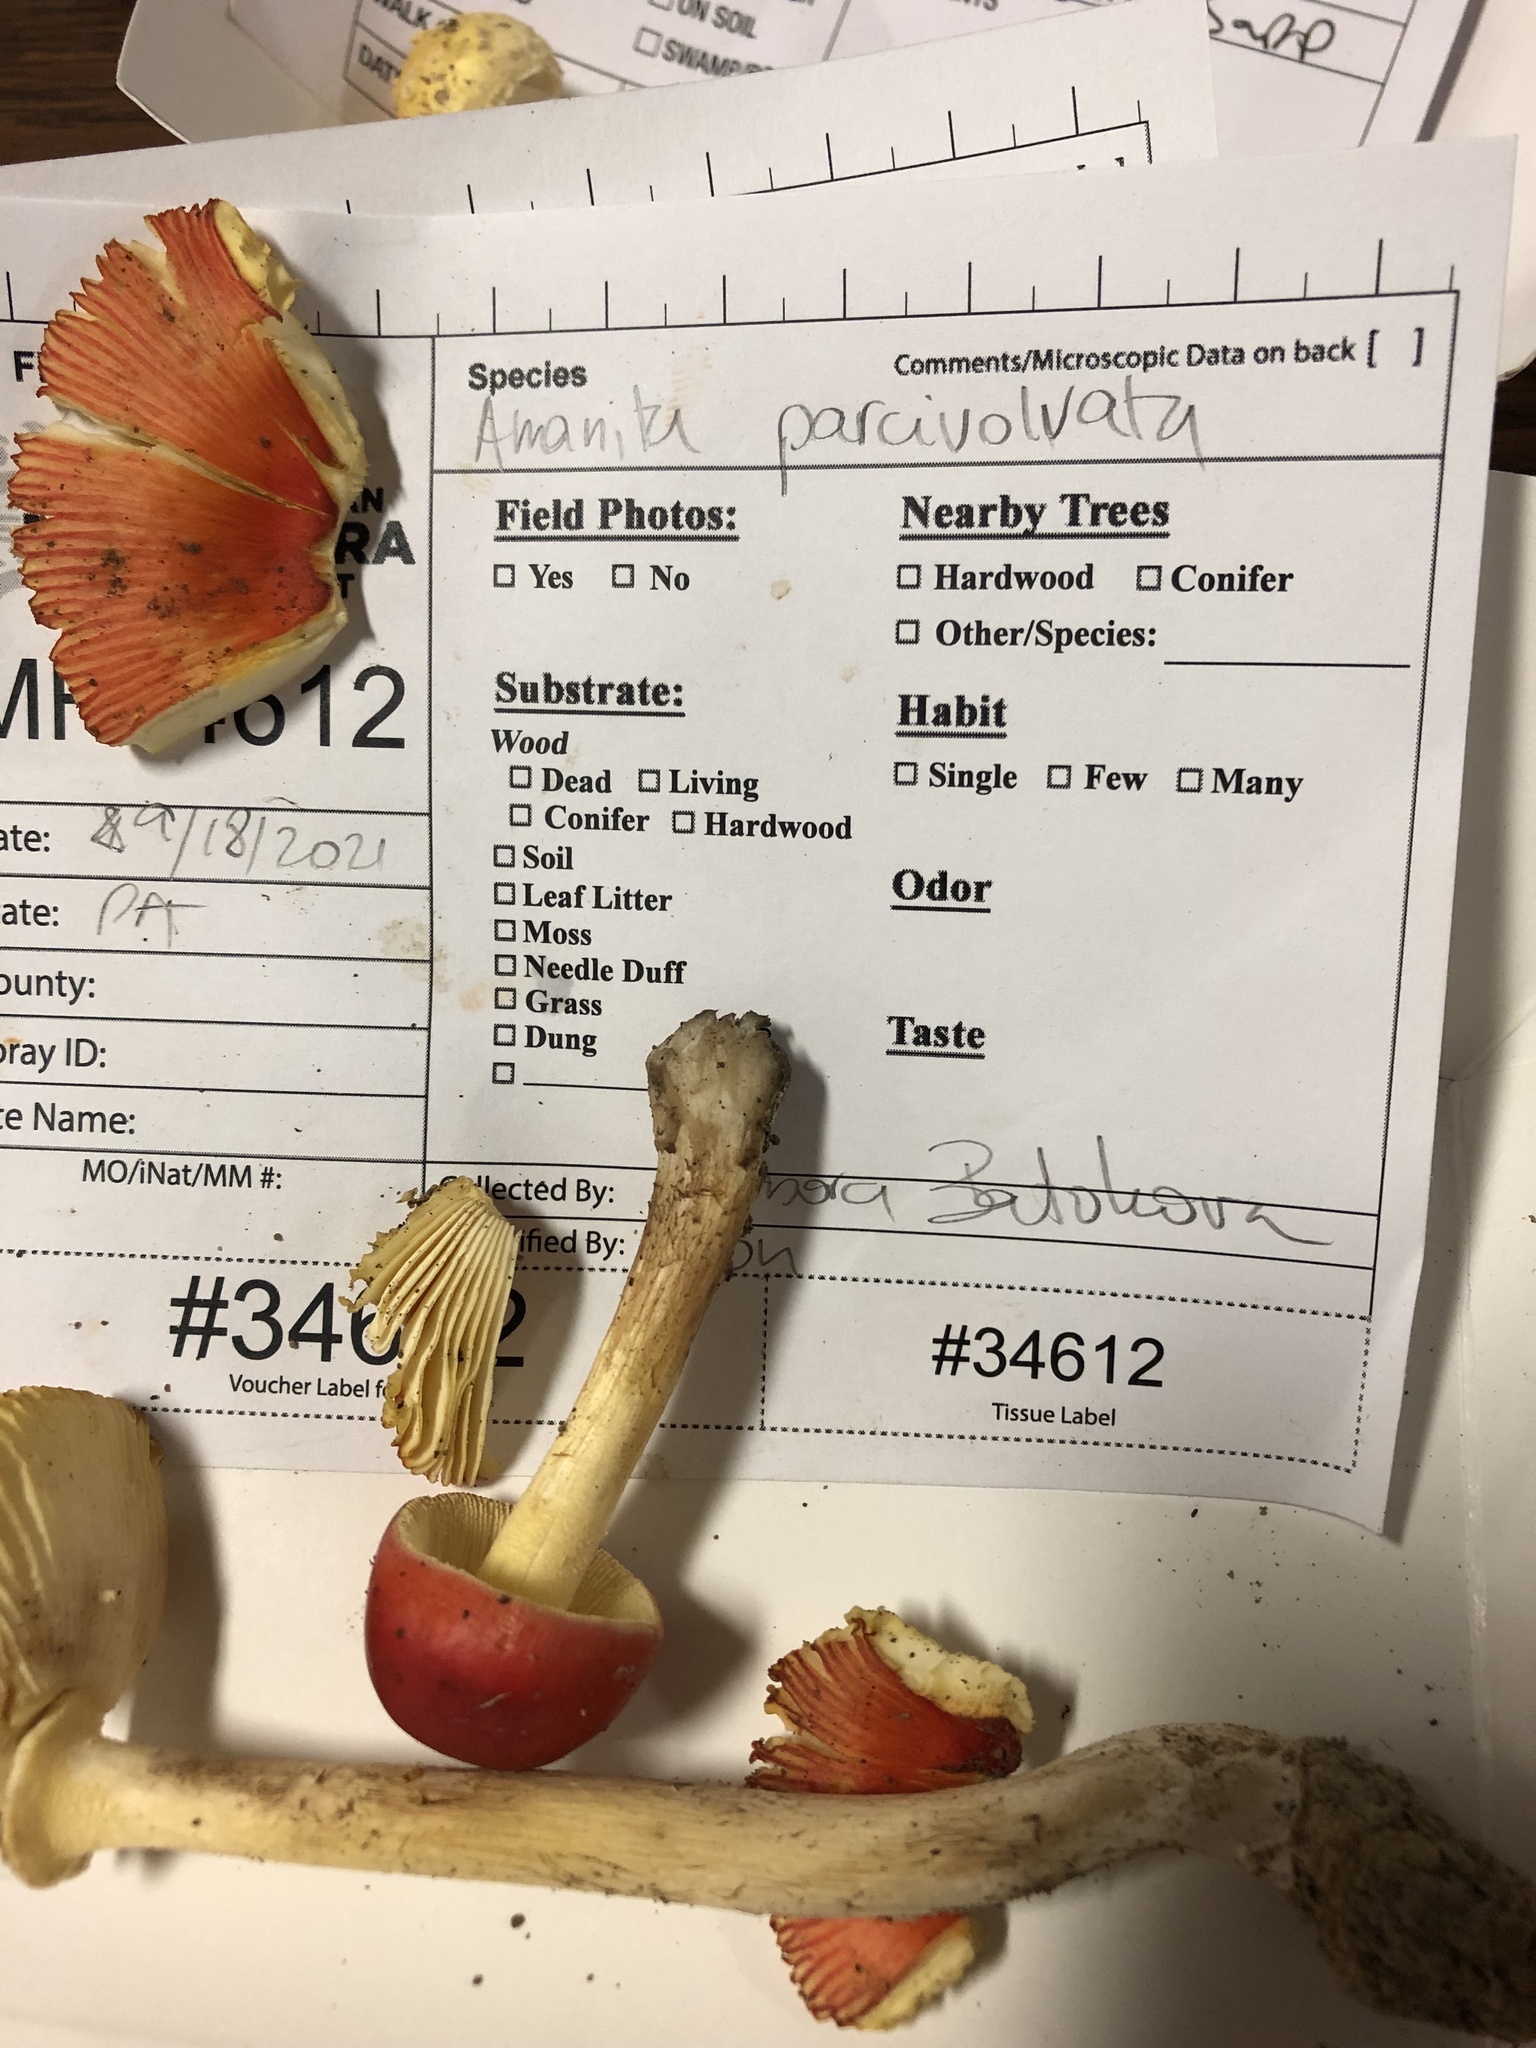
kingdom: Fungi
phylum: Basidiomycota
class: Agaricomycetes
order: Agaricales
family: Amanitaceae
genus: Amanita
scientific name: Amanita parcivolvata
